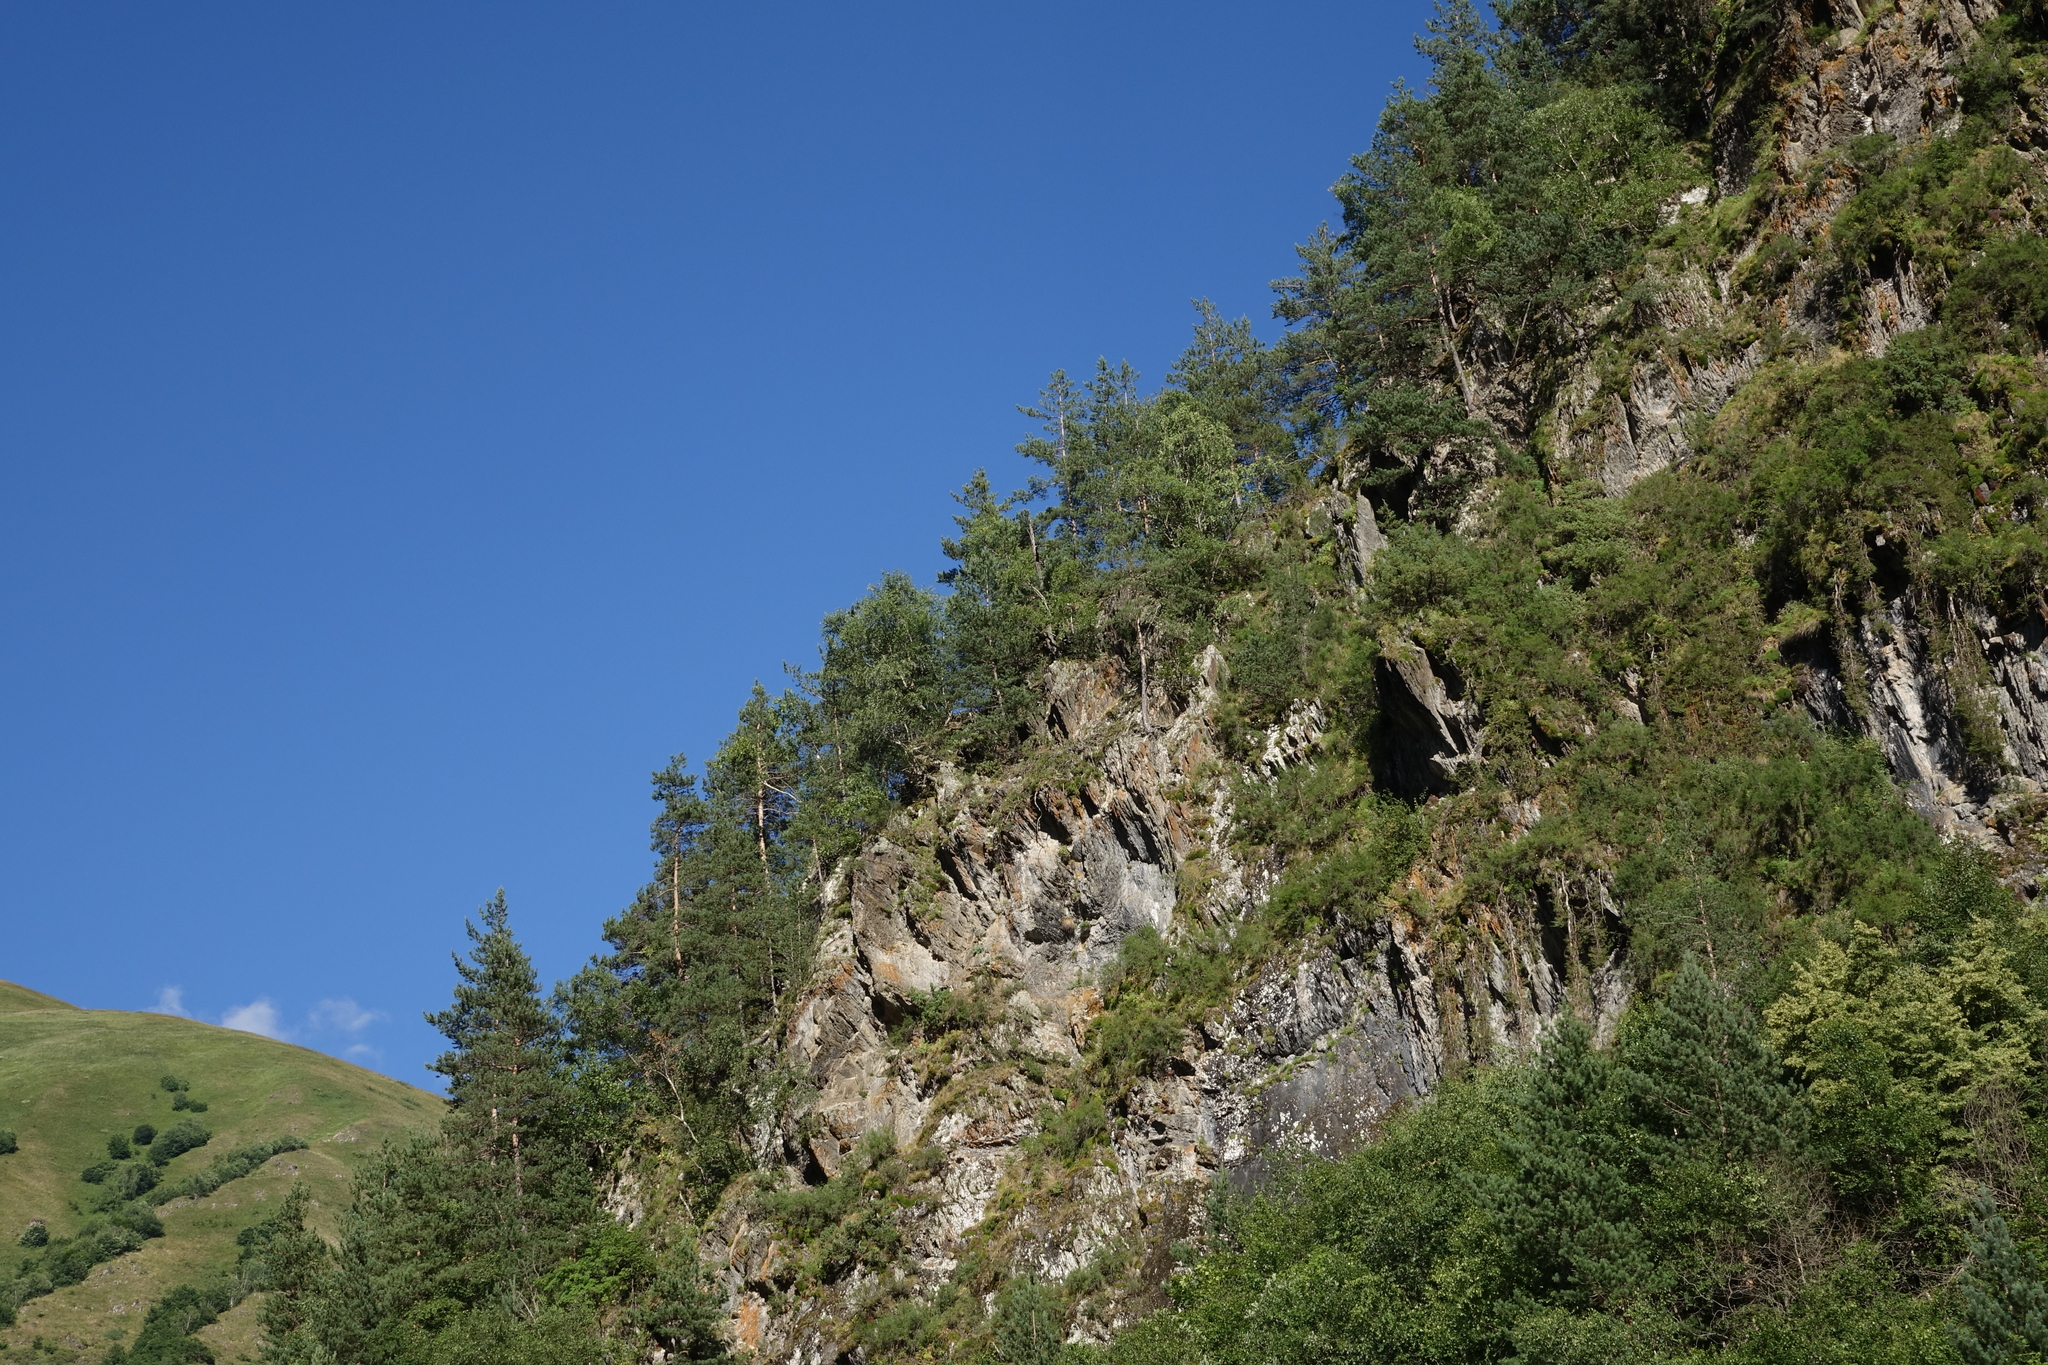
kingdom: Plantae
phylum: Tracheophyta
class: Pinopsida
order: Pinales
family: Pinaceae
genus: Pinus
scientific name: Pinus sylvestris
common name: Scots pine
